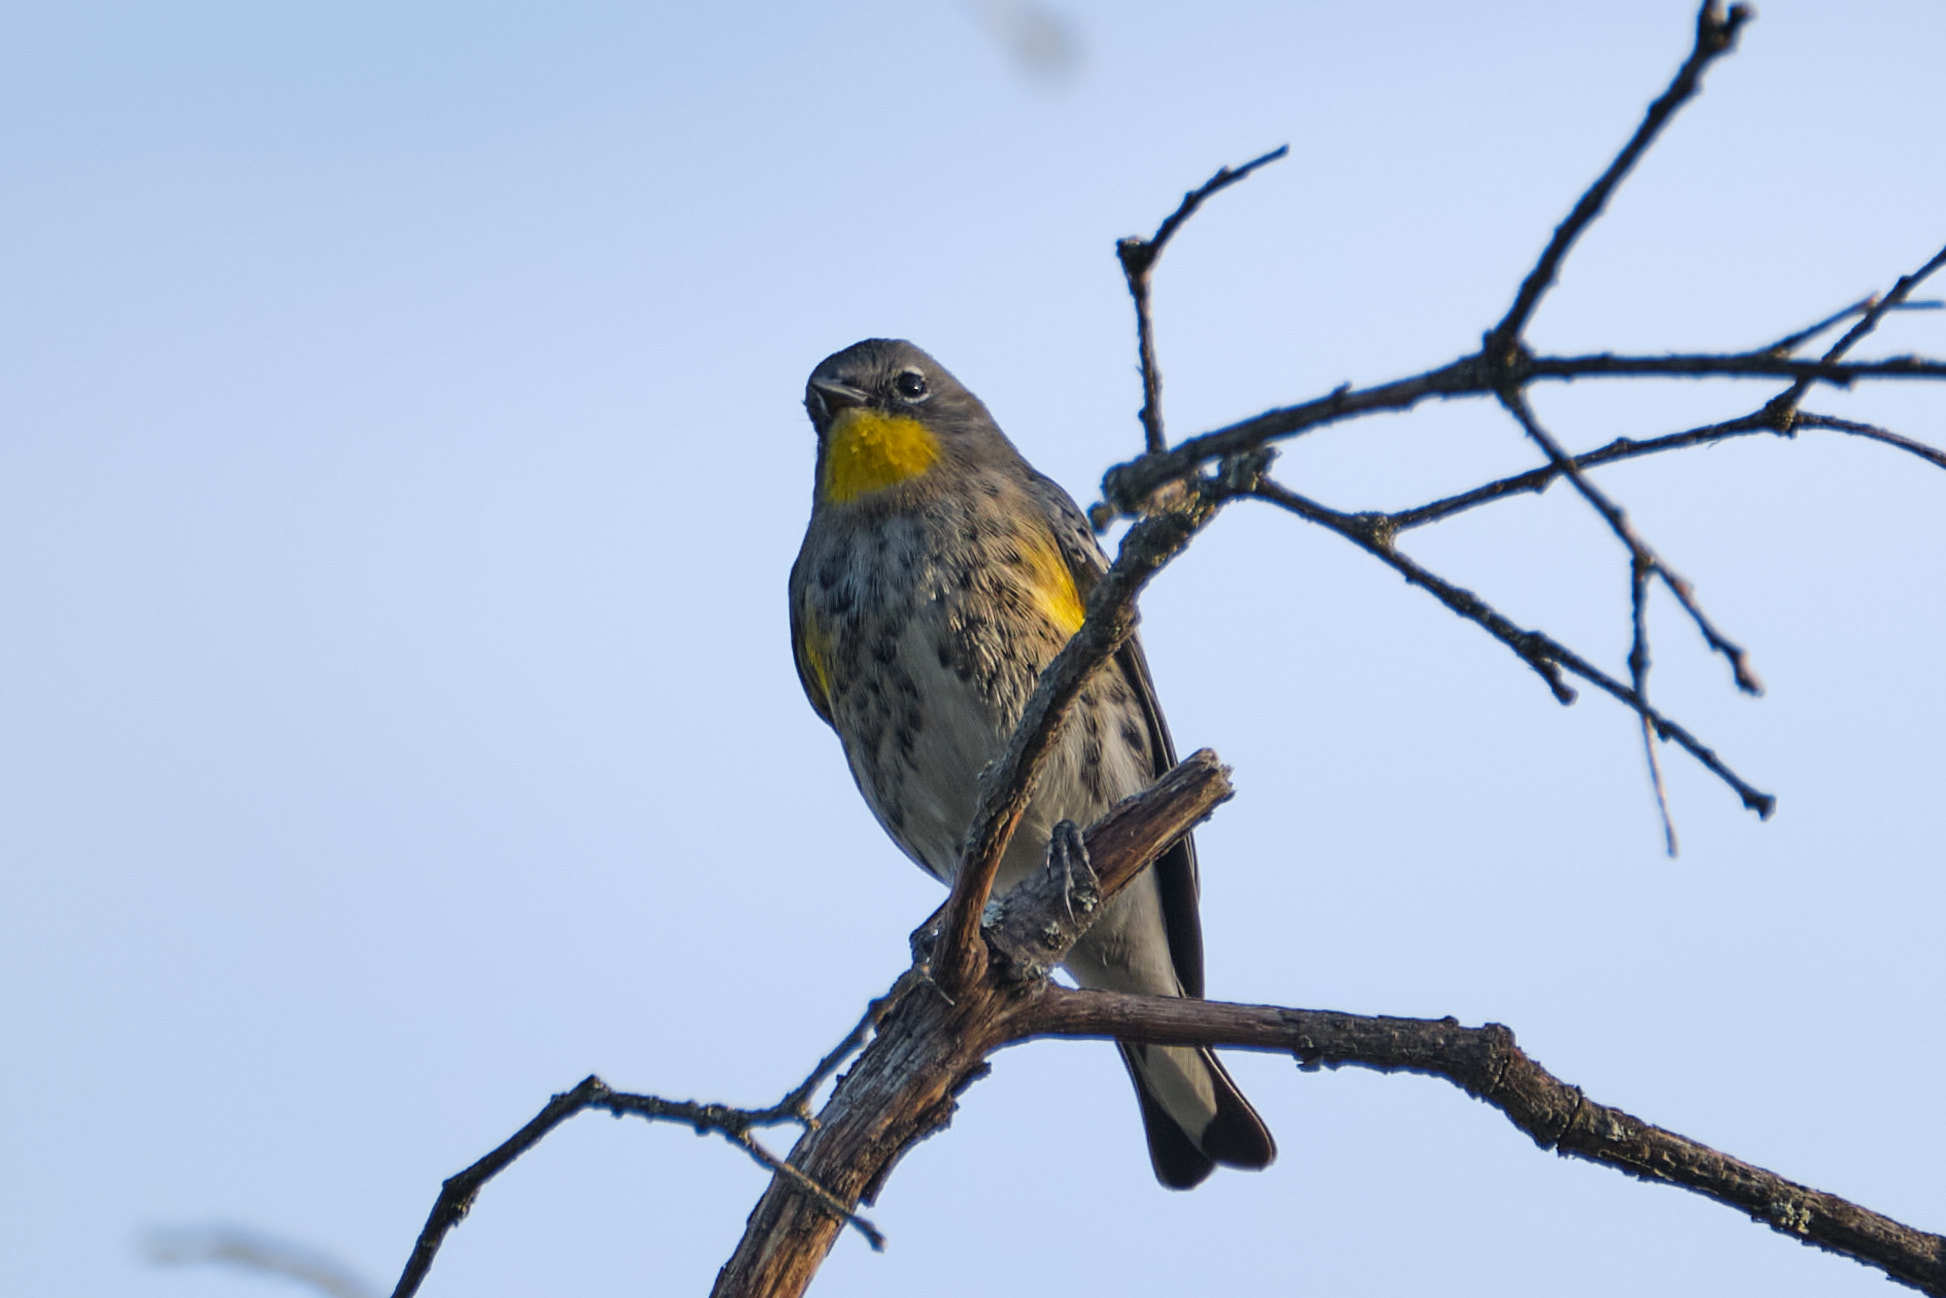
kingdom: Animalia
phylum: Chordata
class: Aves
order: Passeriformes
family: Parulidae
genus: Setophaga
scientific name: Setophaga coronata
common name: Myrtle warbler
